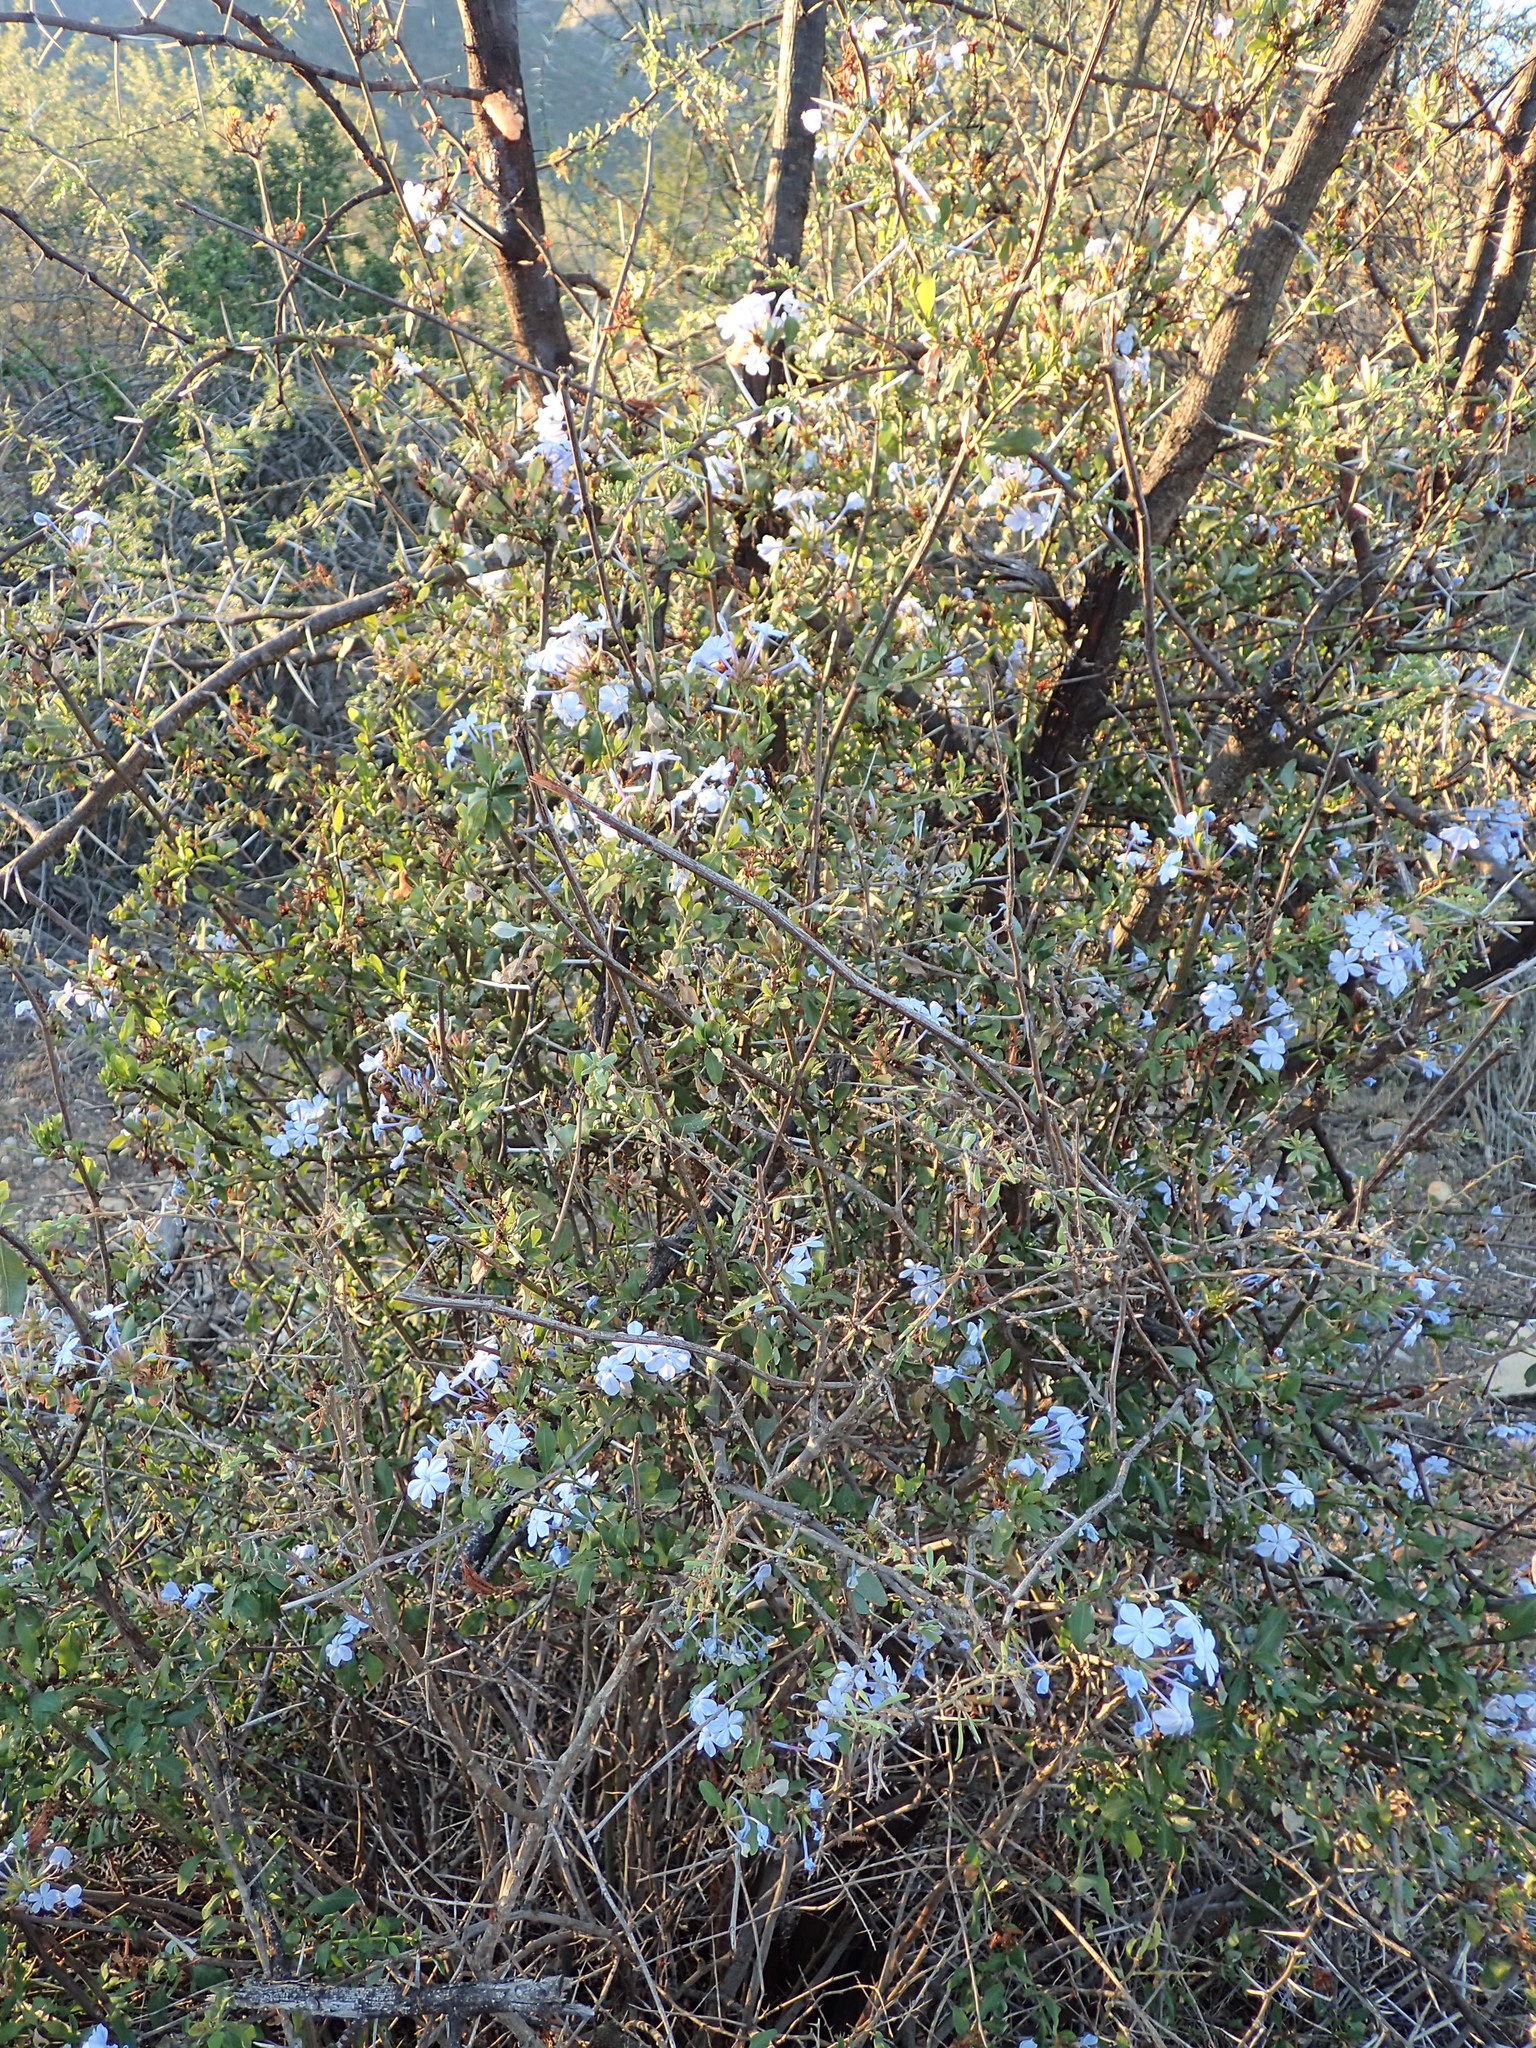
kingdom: Plantae
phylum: Tracheophyta
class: Magnoliopsida
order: Caryophyllales
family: Plumbaginaceae
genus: Plumbago
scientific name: Plumbago auriculata
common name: Cape leadwort
